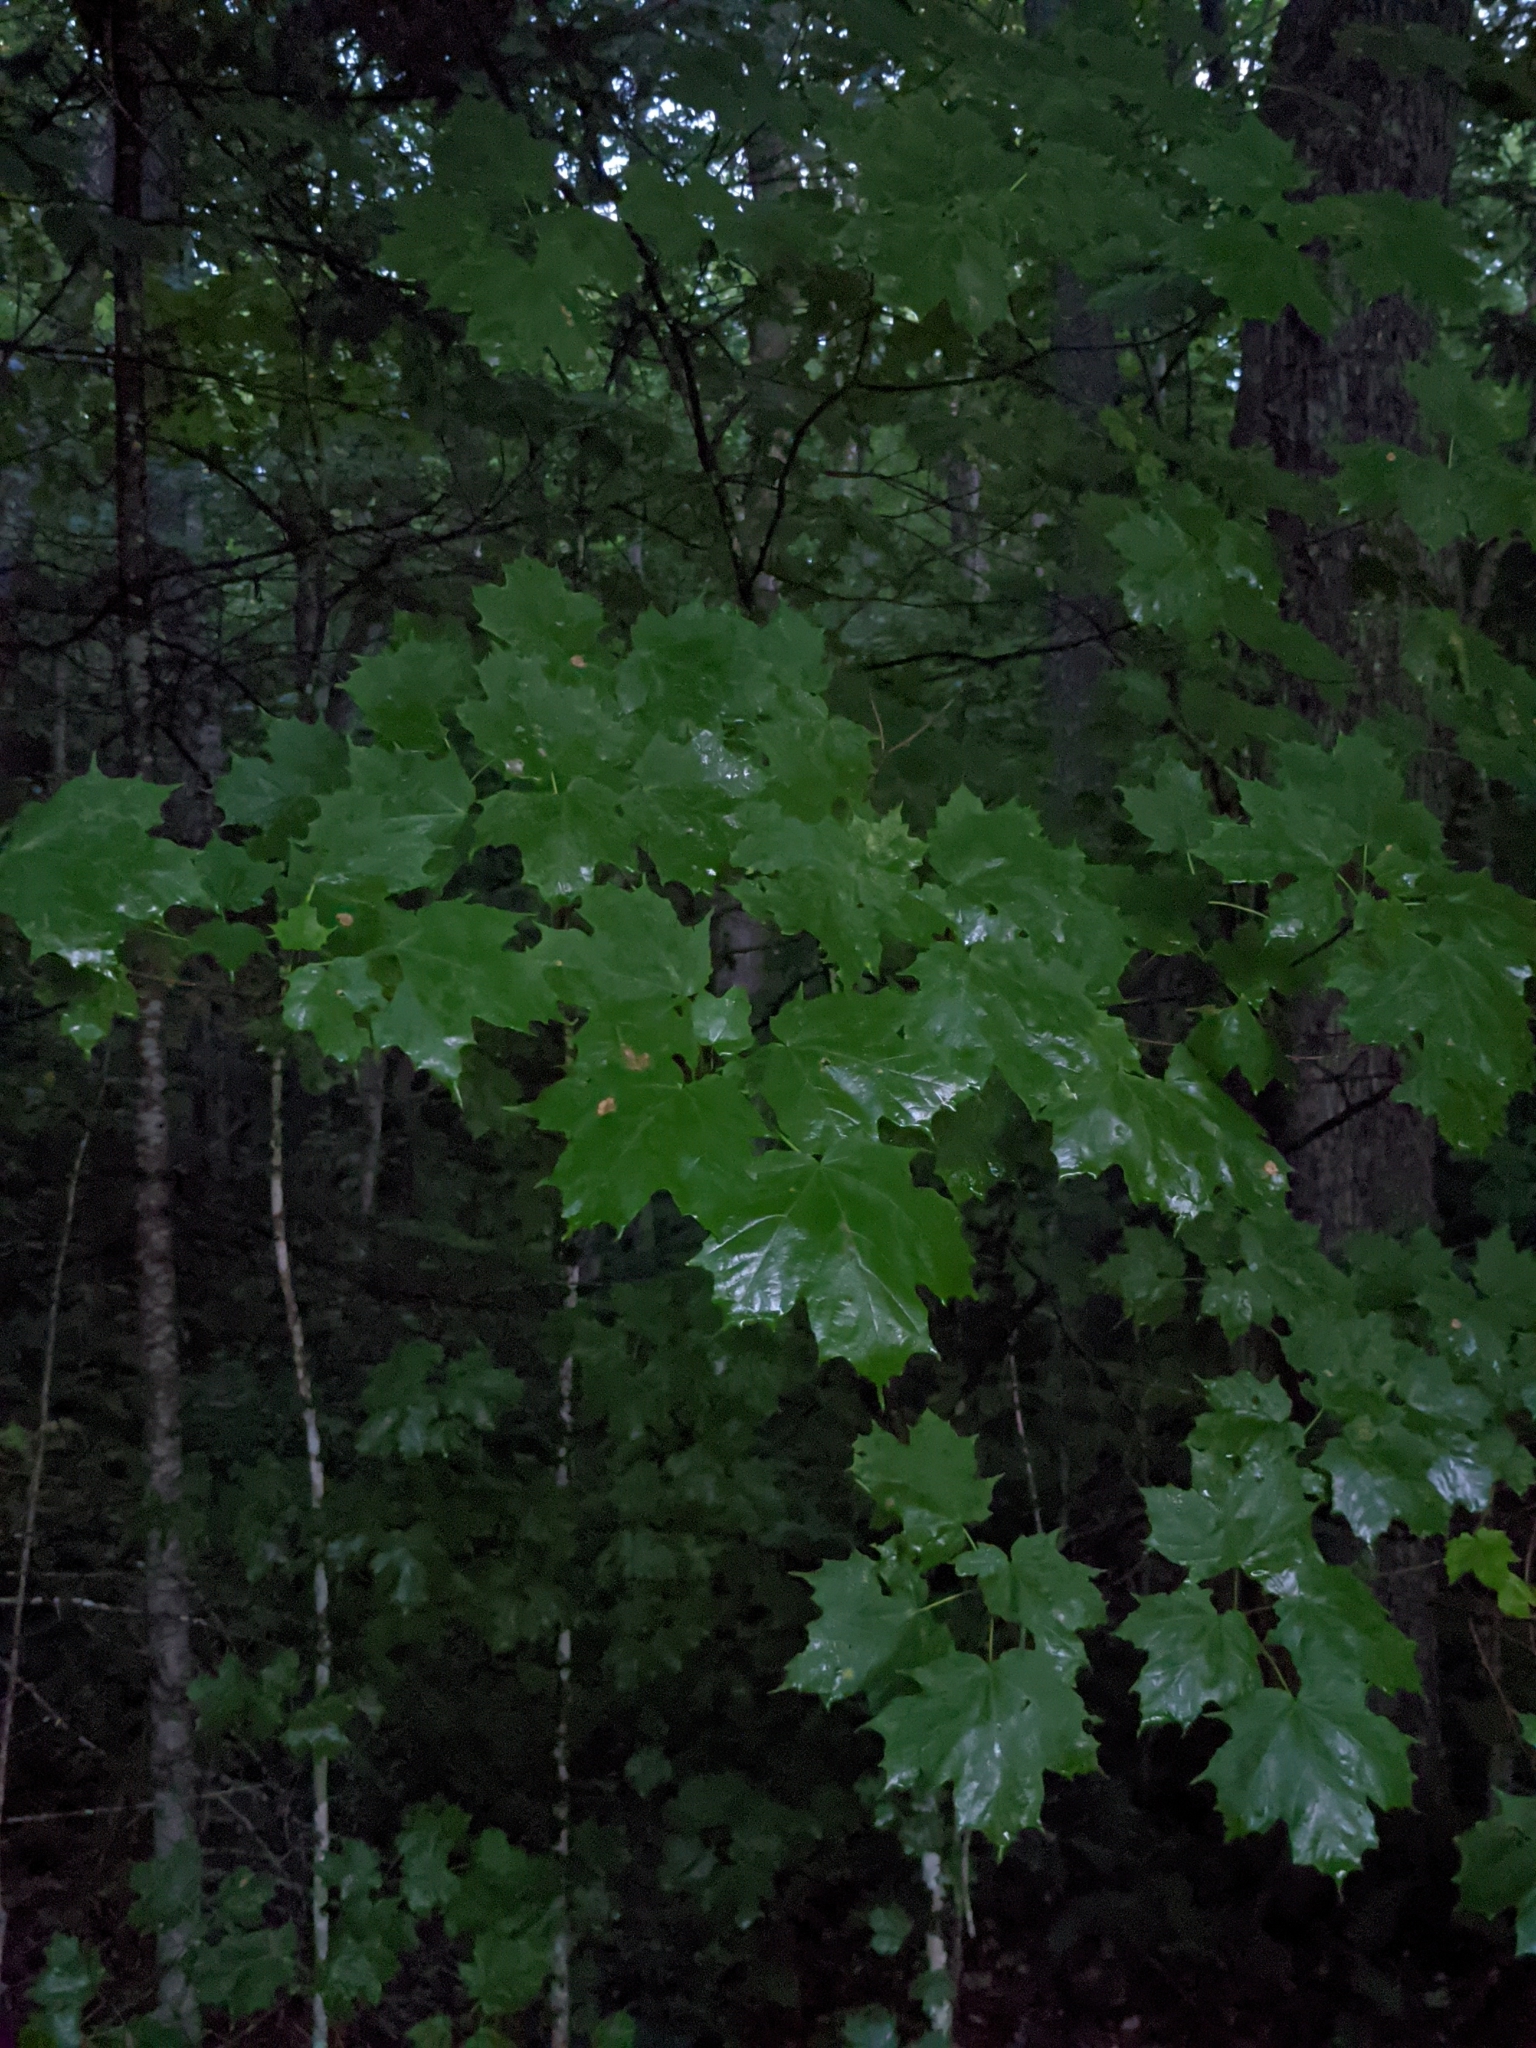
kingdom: Plantae
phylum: Tracheophyta
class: Magnoliopsida
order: Sapindales
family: Sapindaceae
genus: Acer
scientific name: Acer saccharum
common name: Sugar maple
